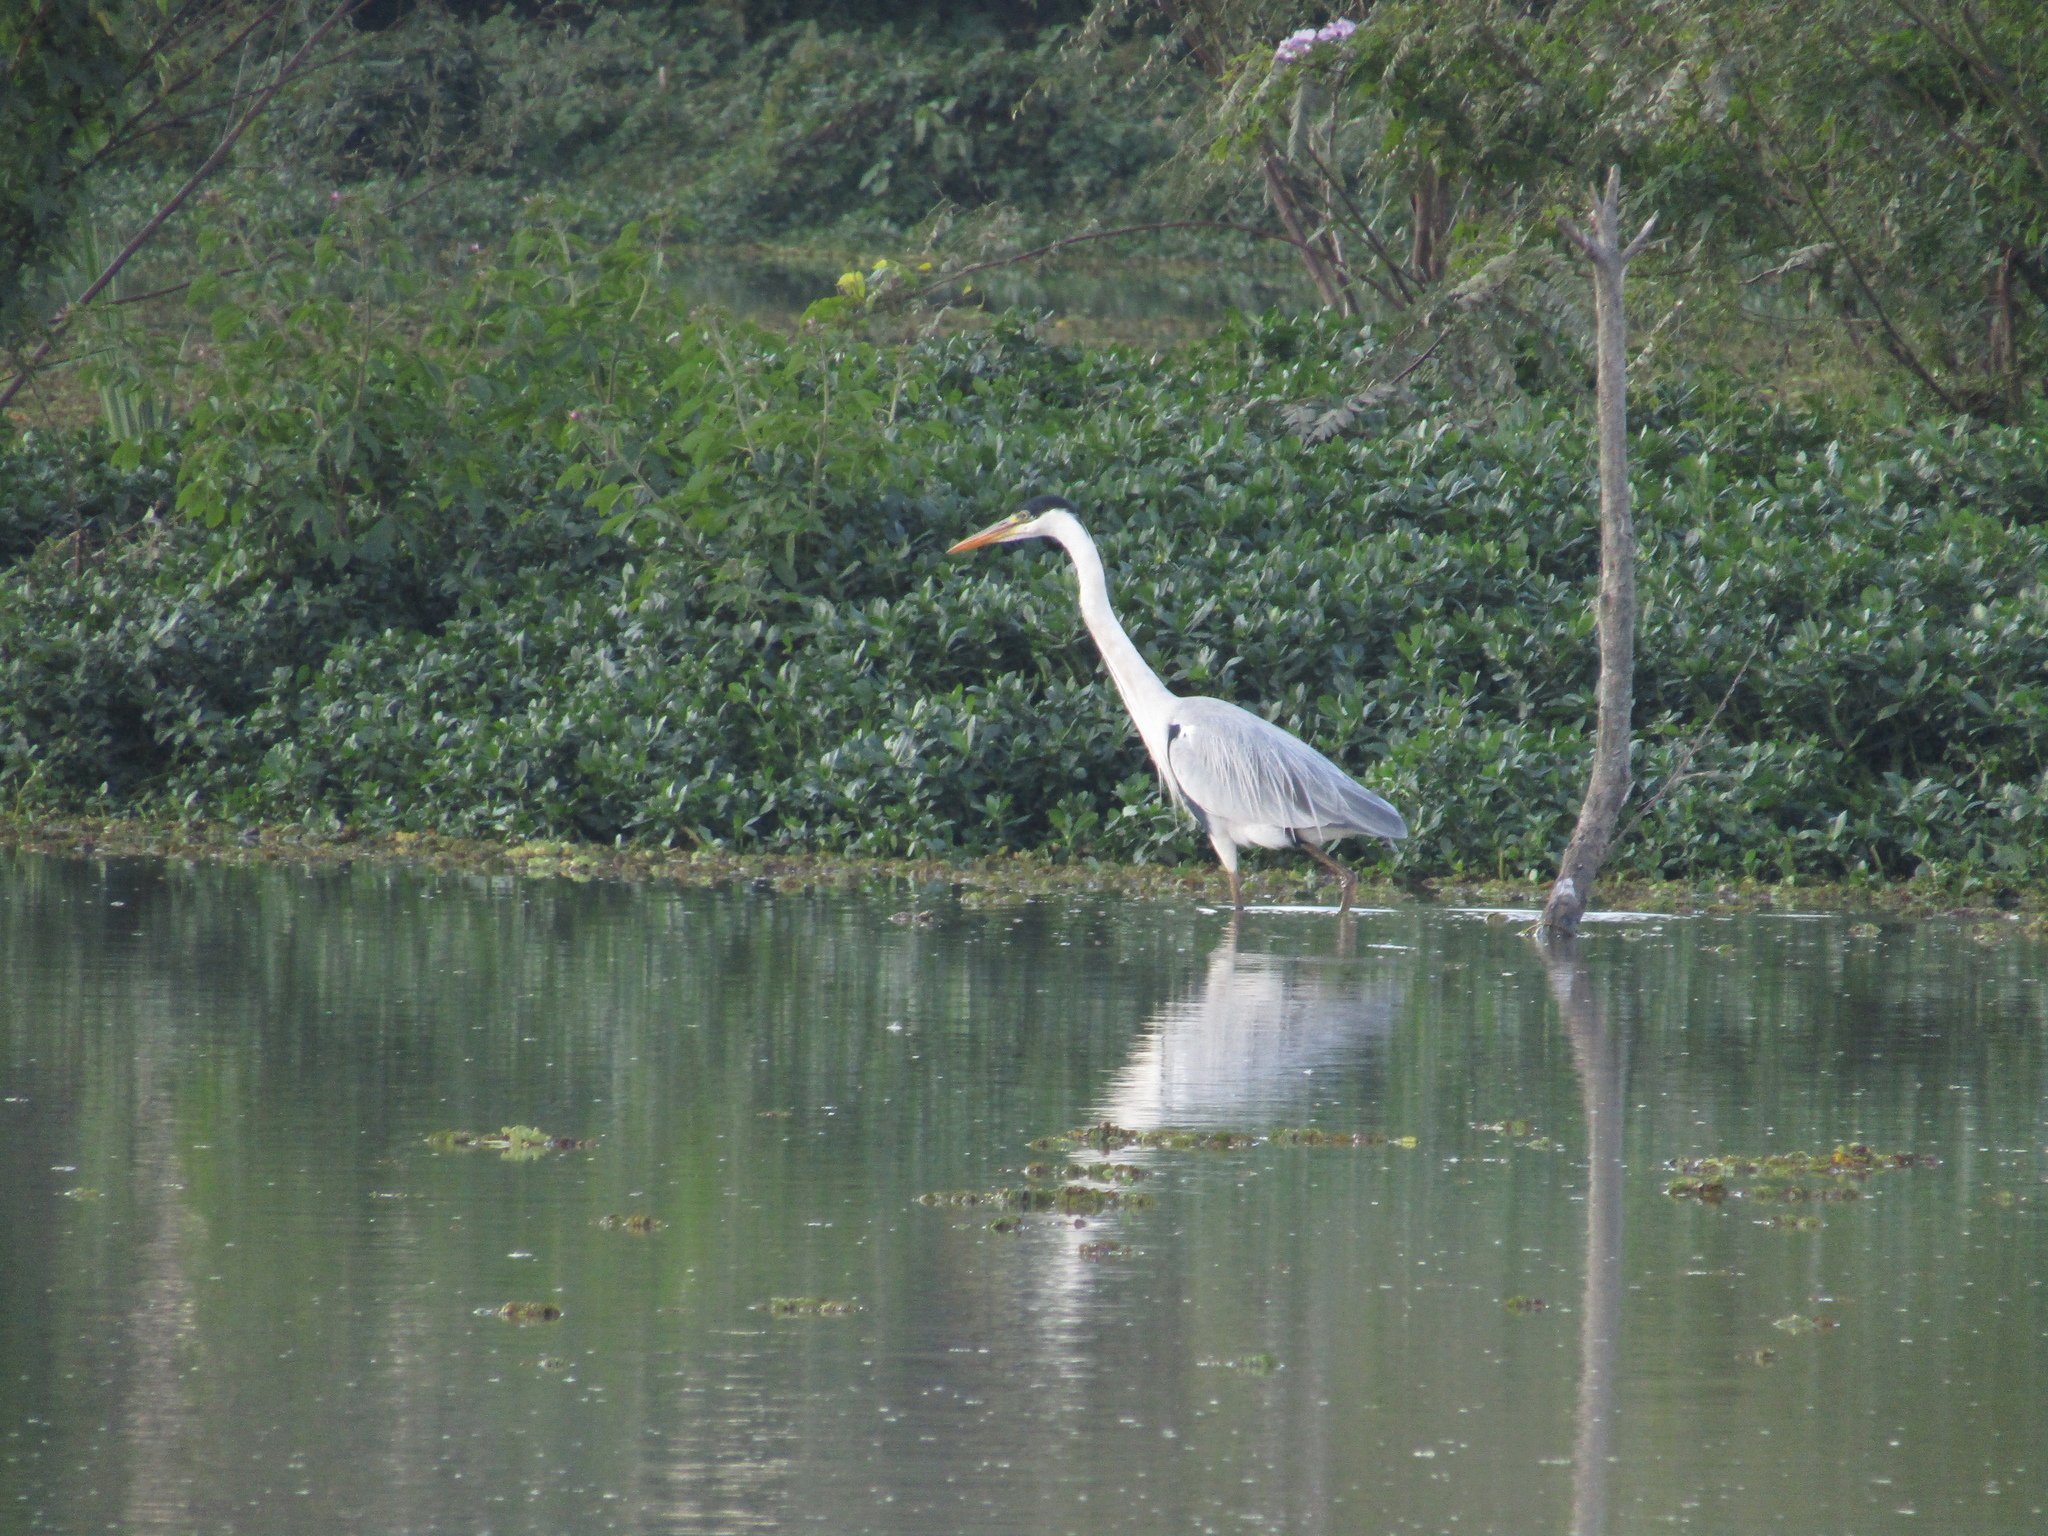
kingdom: Animalia
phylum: Chordata
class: Aves
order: Pelecaniformes
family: Ardeidae
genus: Ardea
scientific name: Ardea cocoi
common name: Cocoi heron
